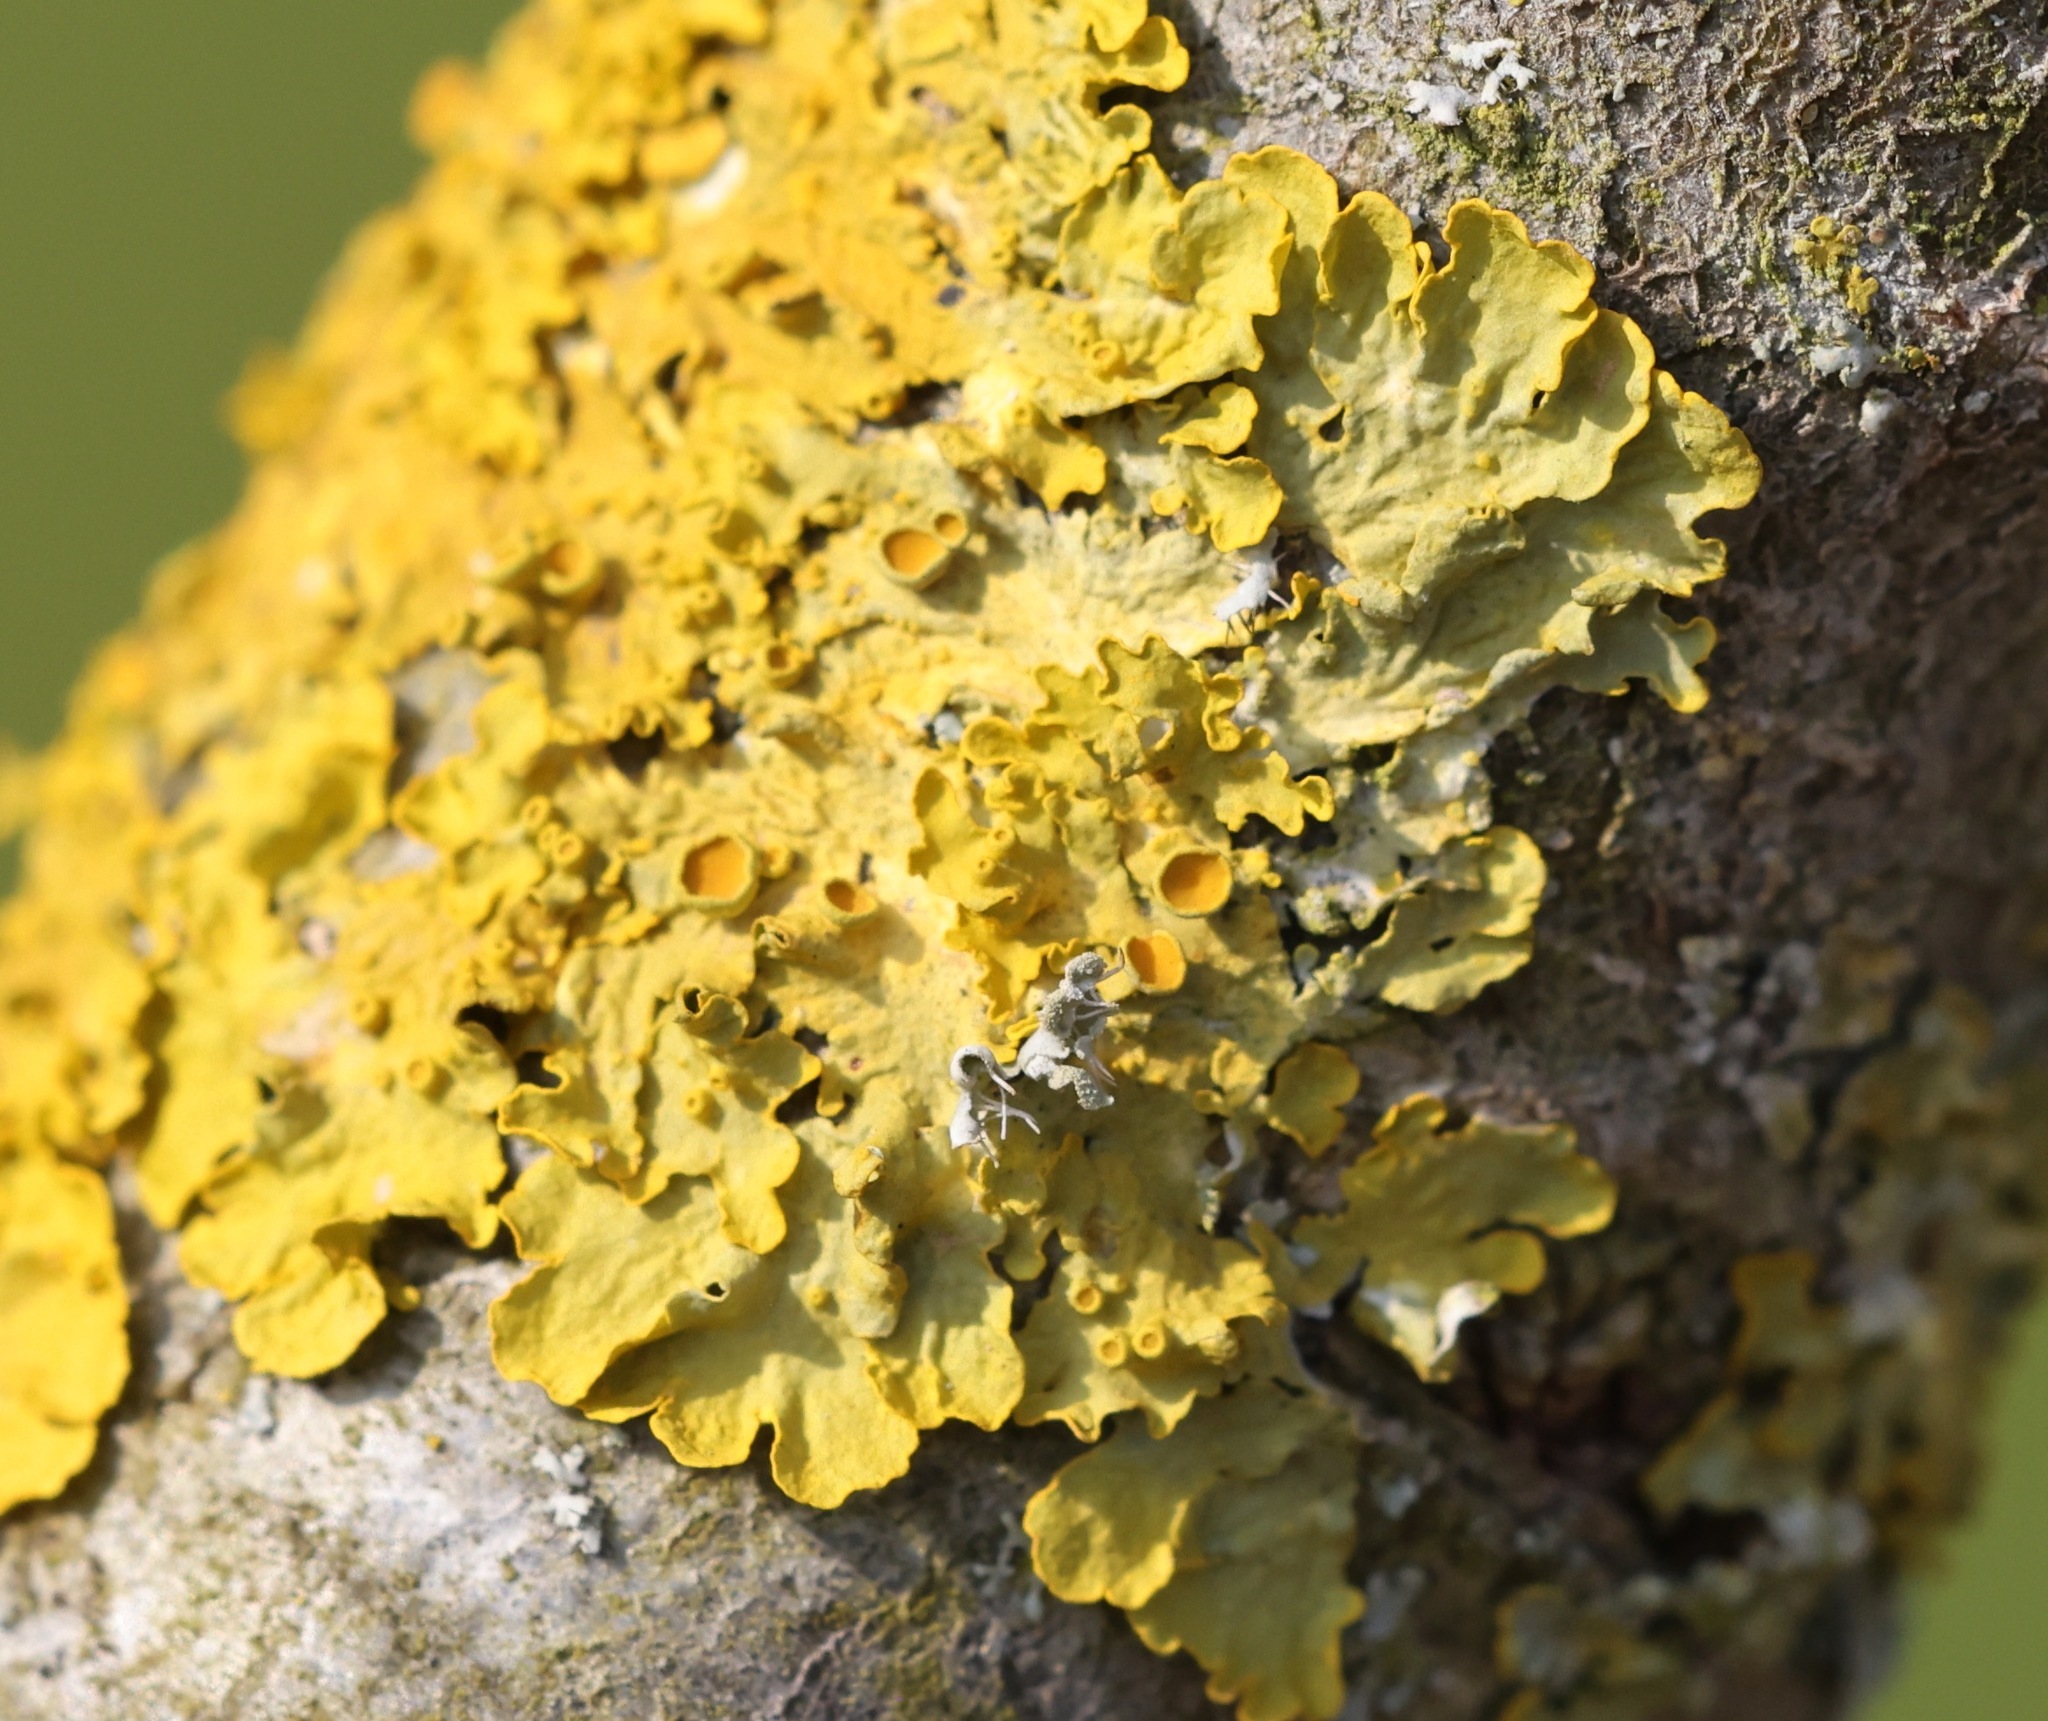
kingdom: Fungi
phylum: Ascomycota
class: Lecanoromycetes
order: Teloschistales
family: Teloschistaceae
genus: Xanthoria
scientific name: Xanthoria parietina
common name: Common orange lichen
